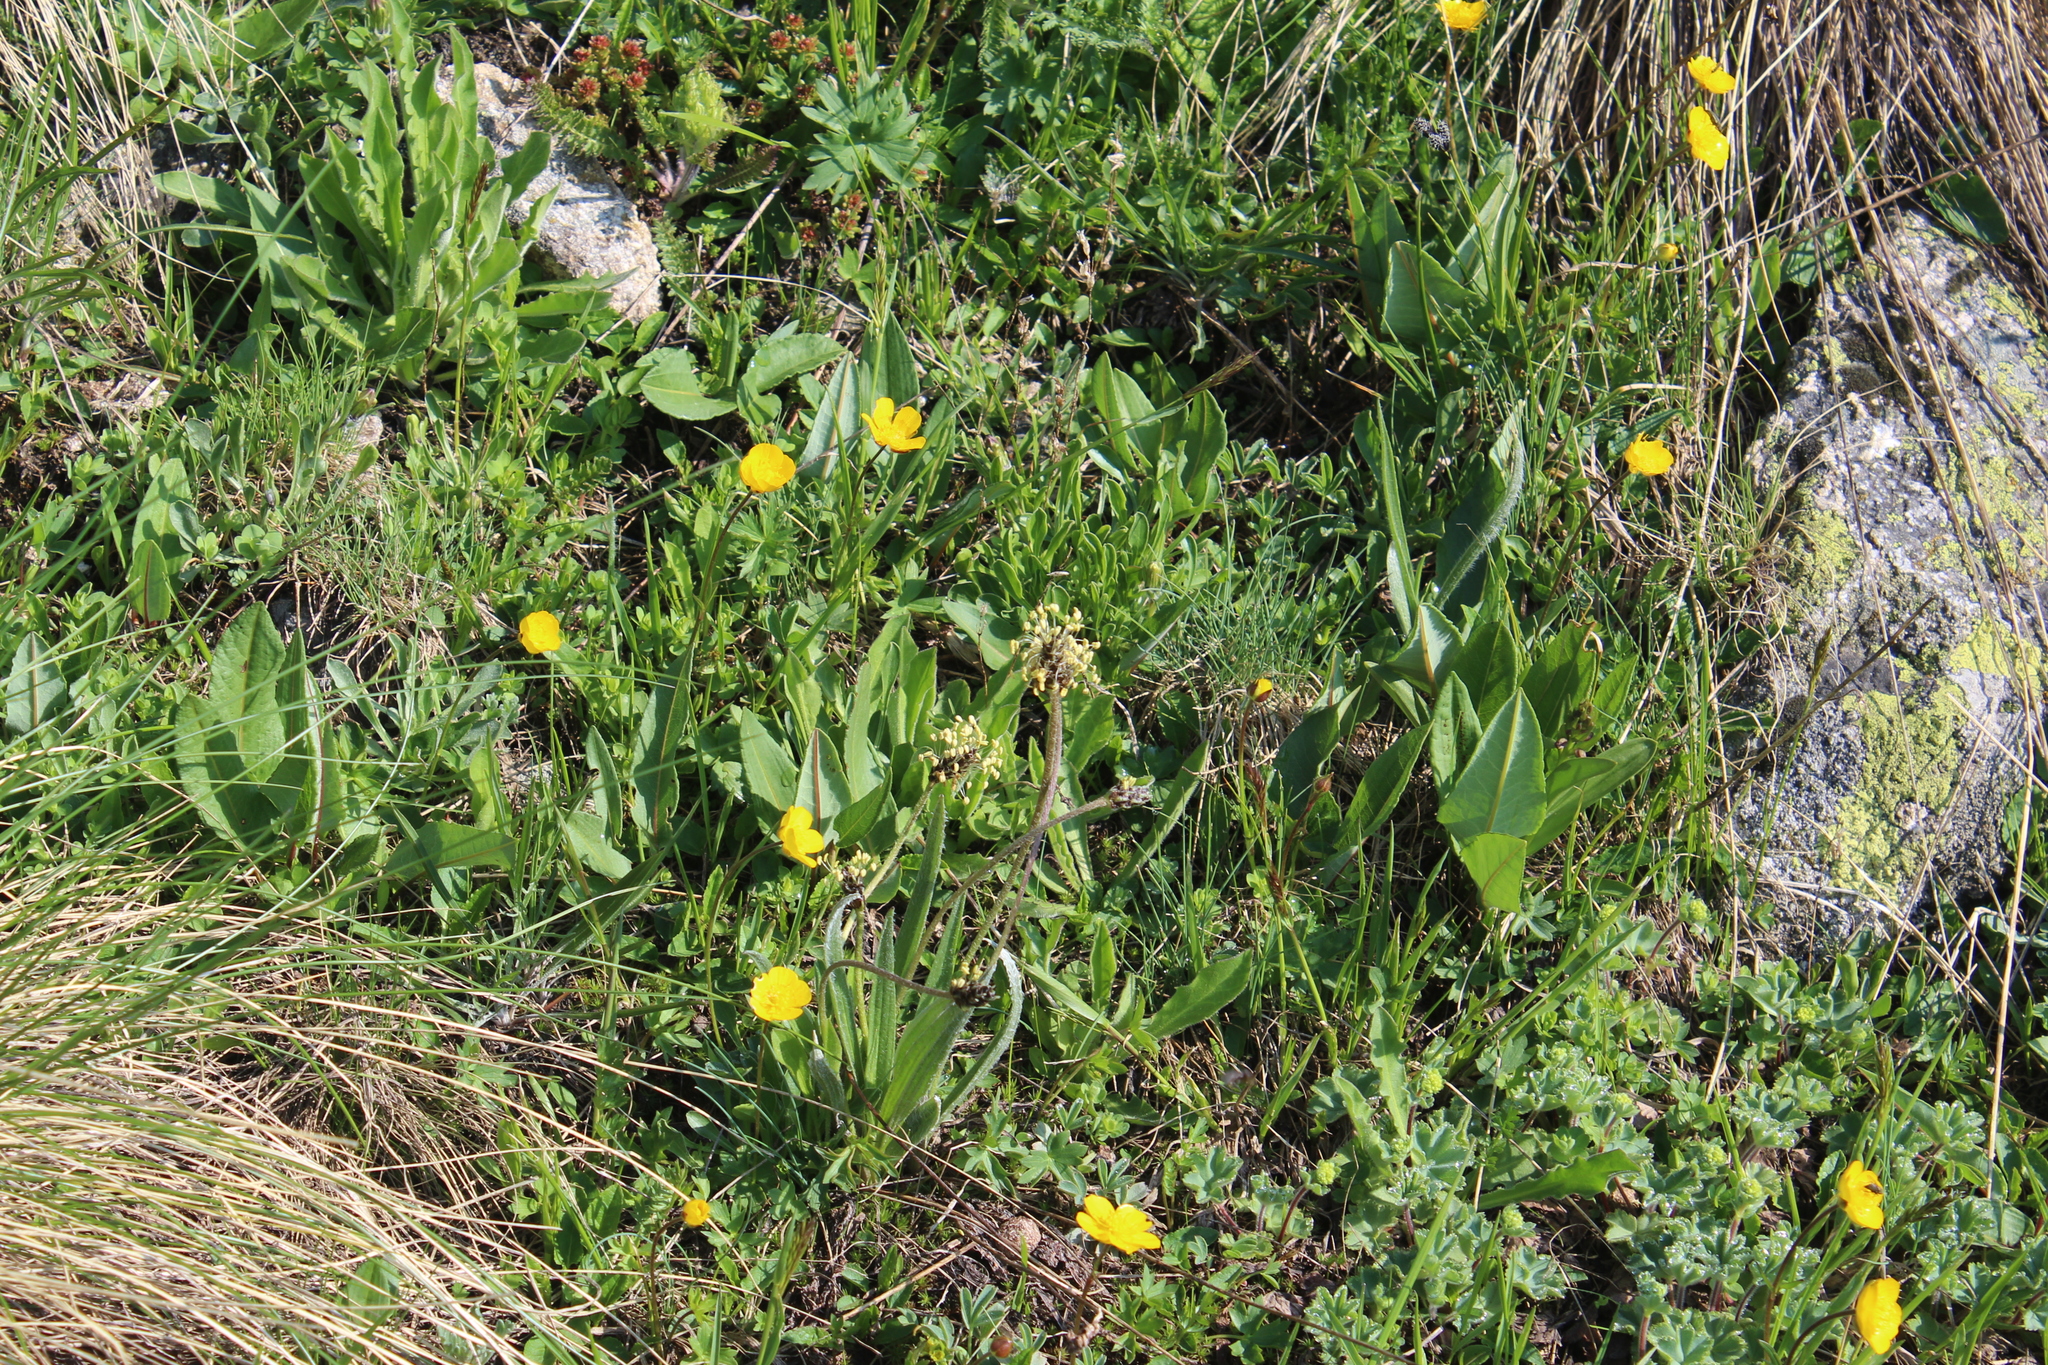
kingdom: Plantae
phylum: Tracheophyta
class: Magnoliopsida
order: Lamiales
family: Plantaginaceae
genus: Plantago
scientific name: Plantago atrata
